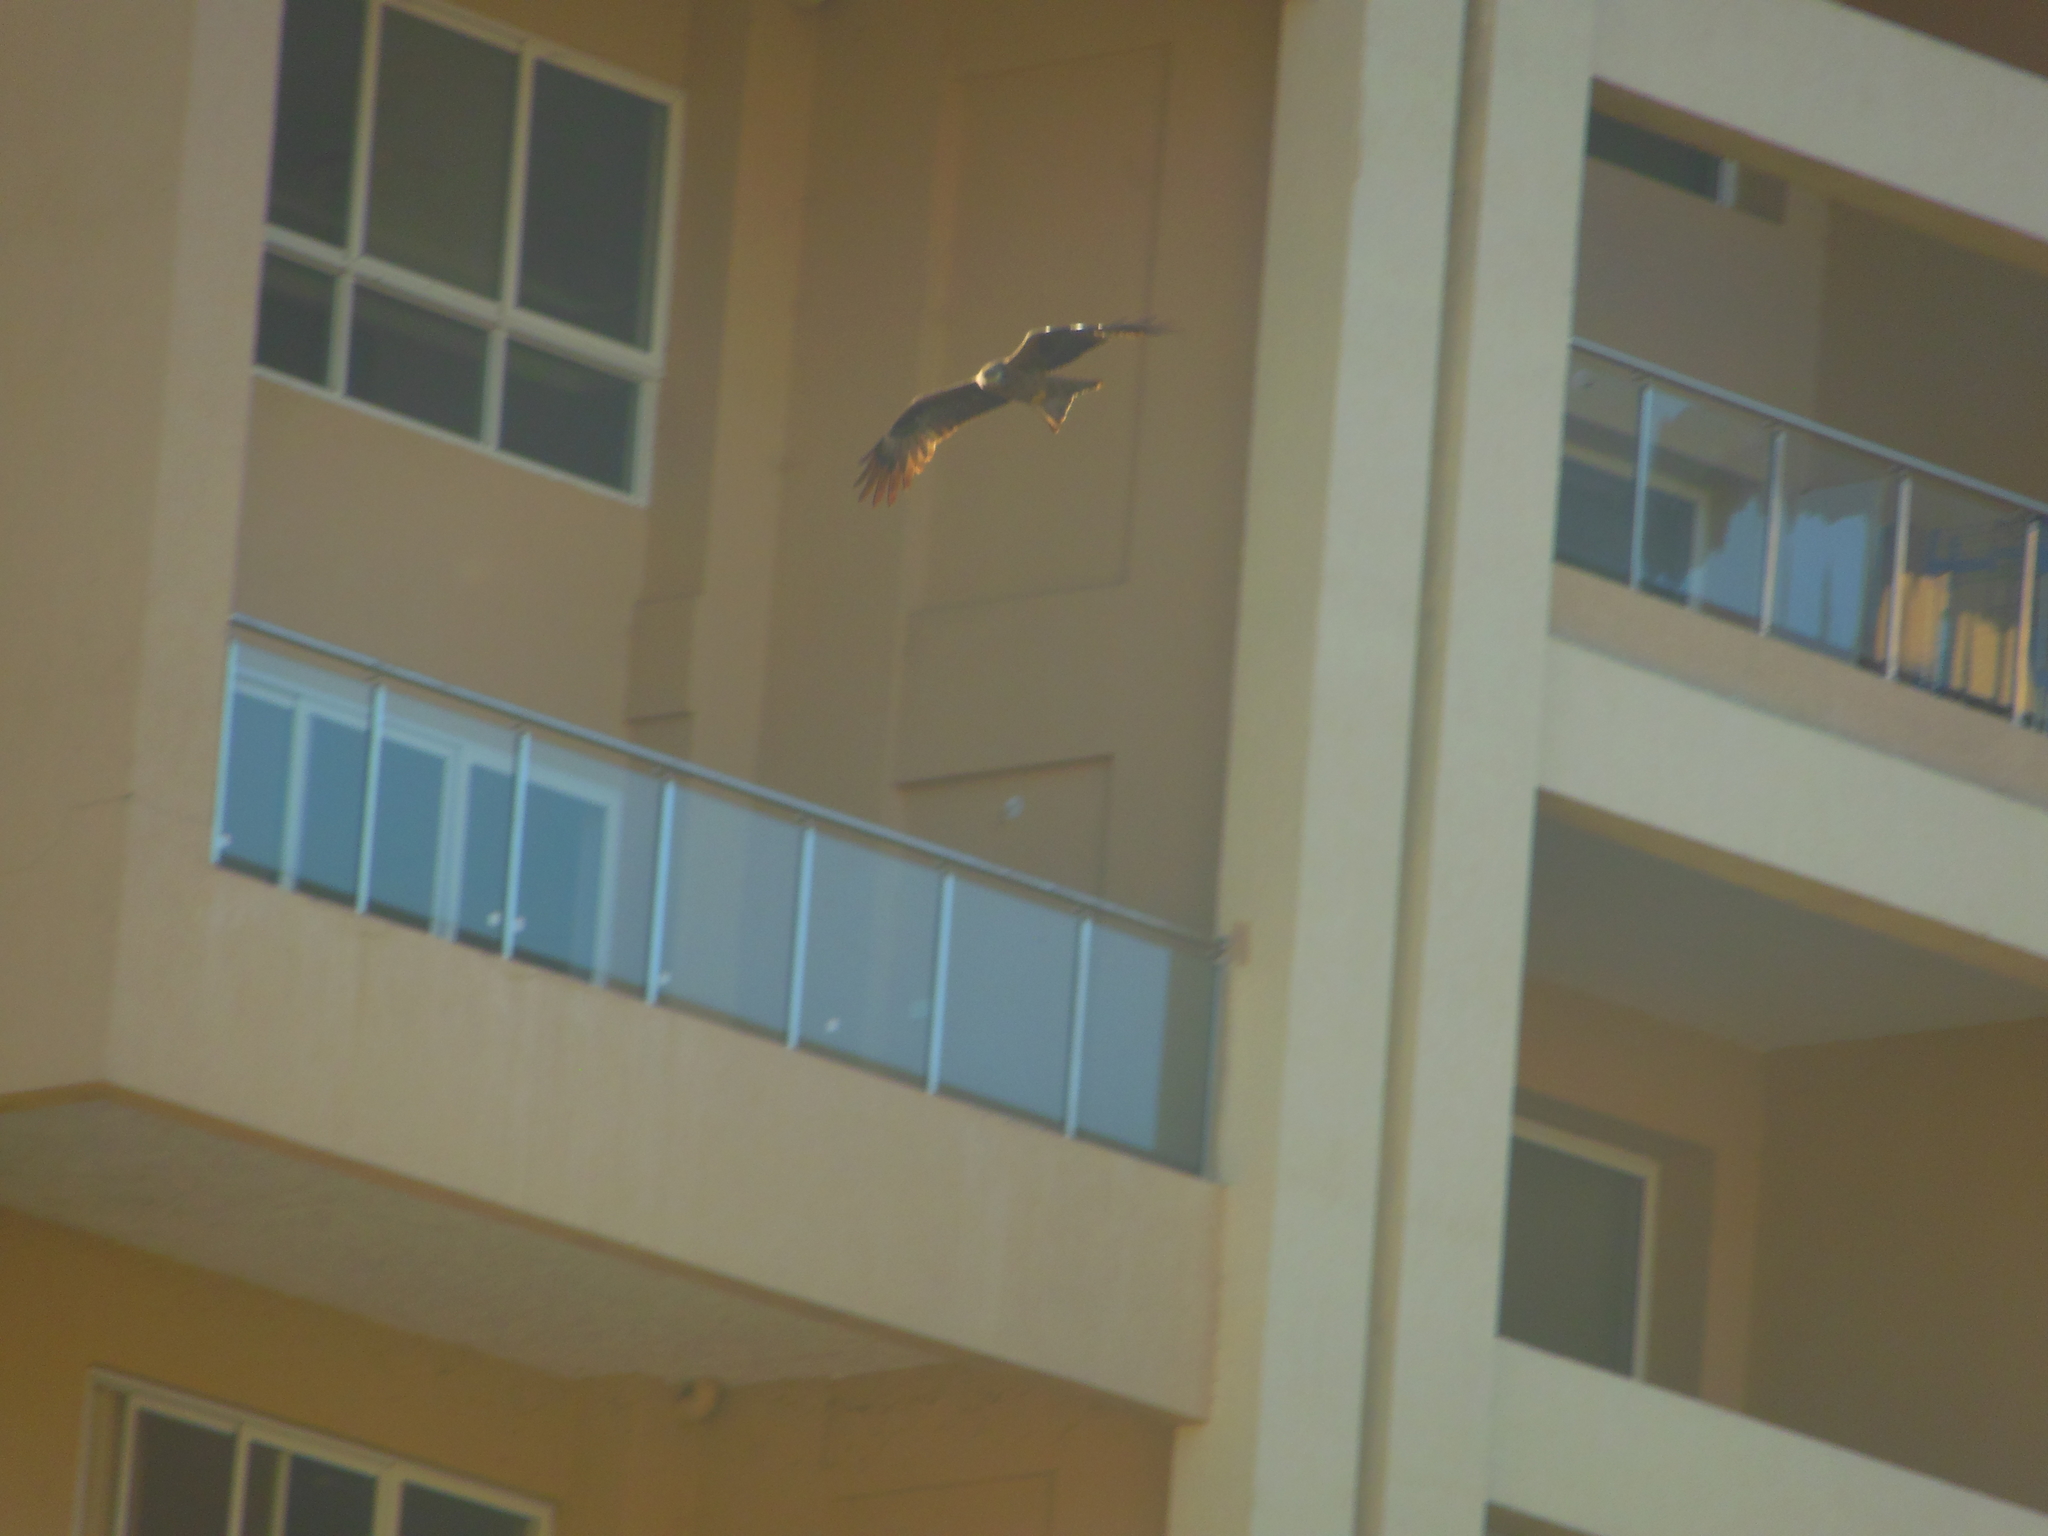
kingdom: Animalia
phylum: Chordata
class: Aves
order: Accipitriformes
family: Accipitridae
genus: Milvus
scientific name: Milvus migrans
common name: Black kite
